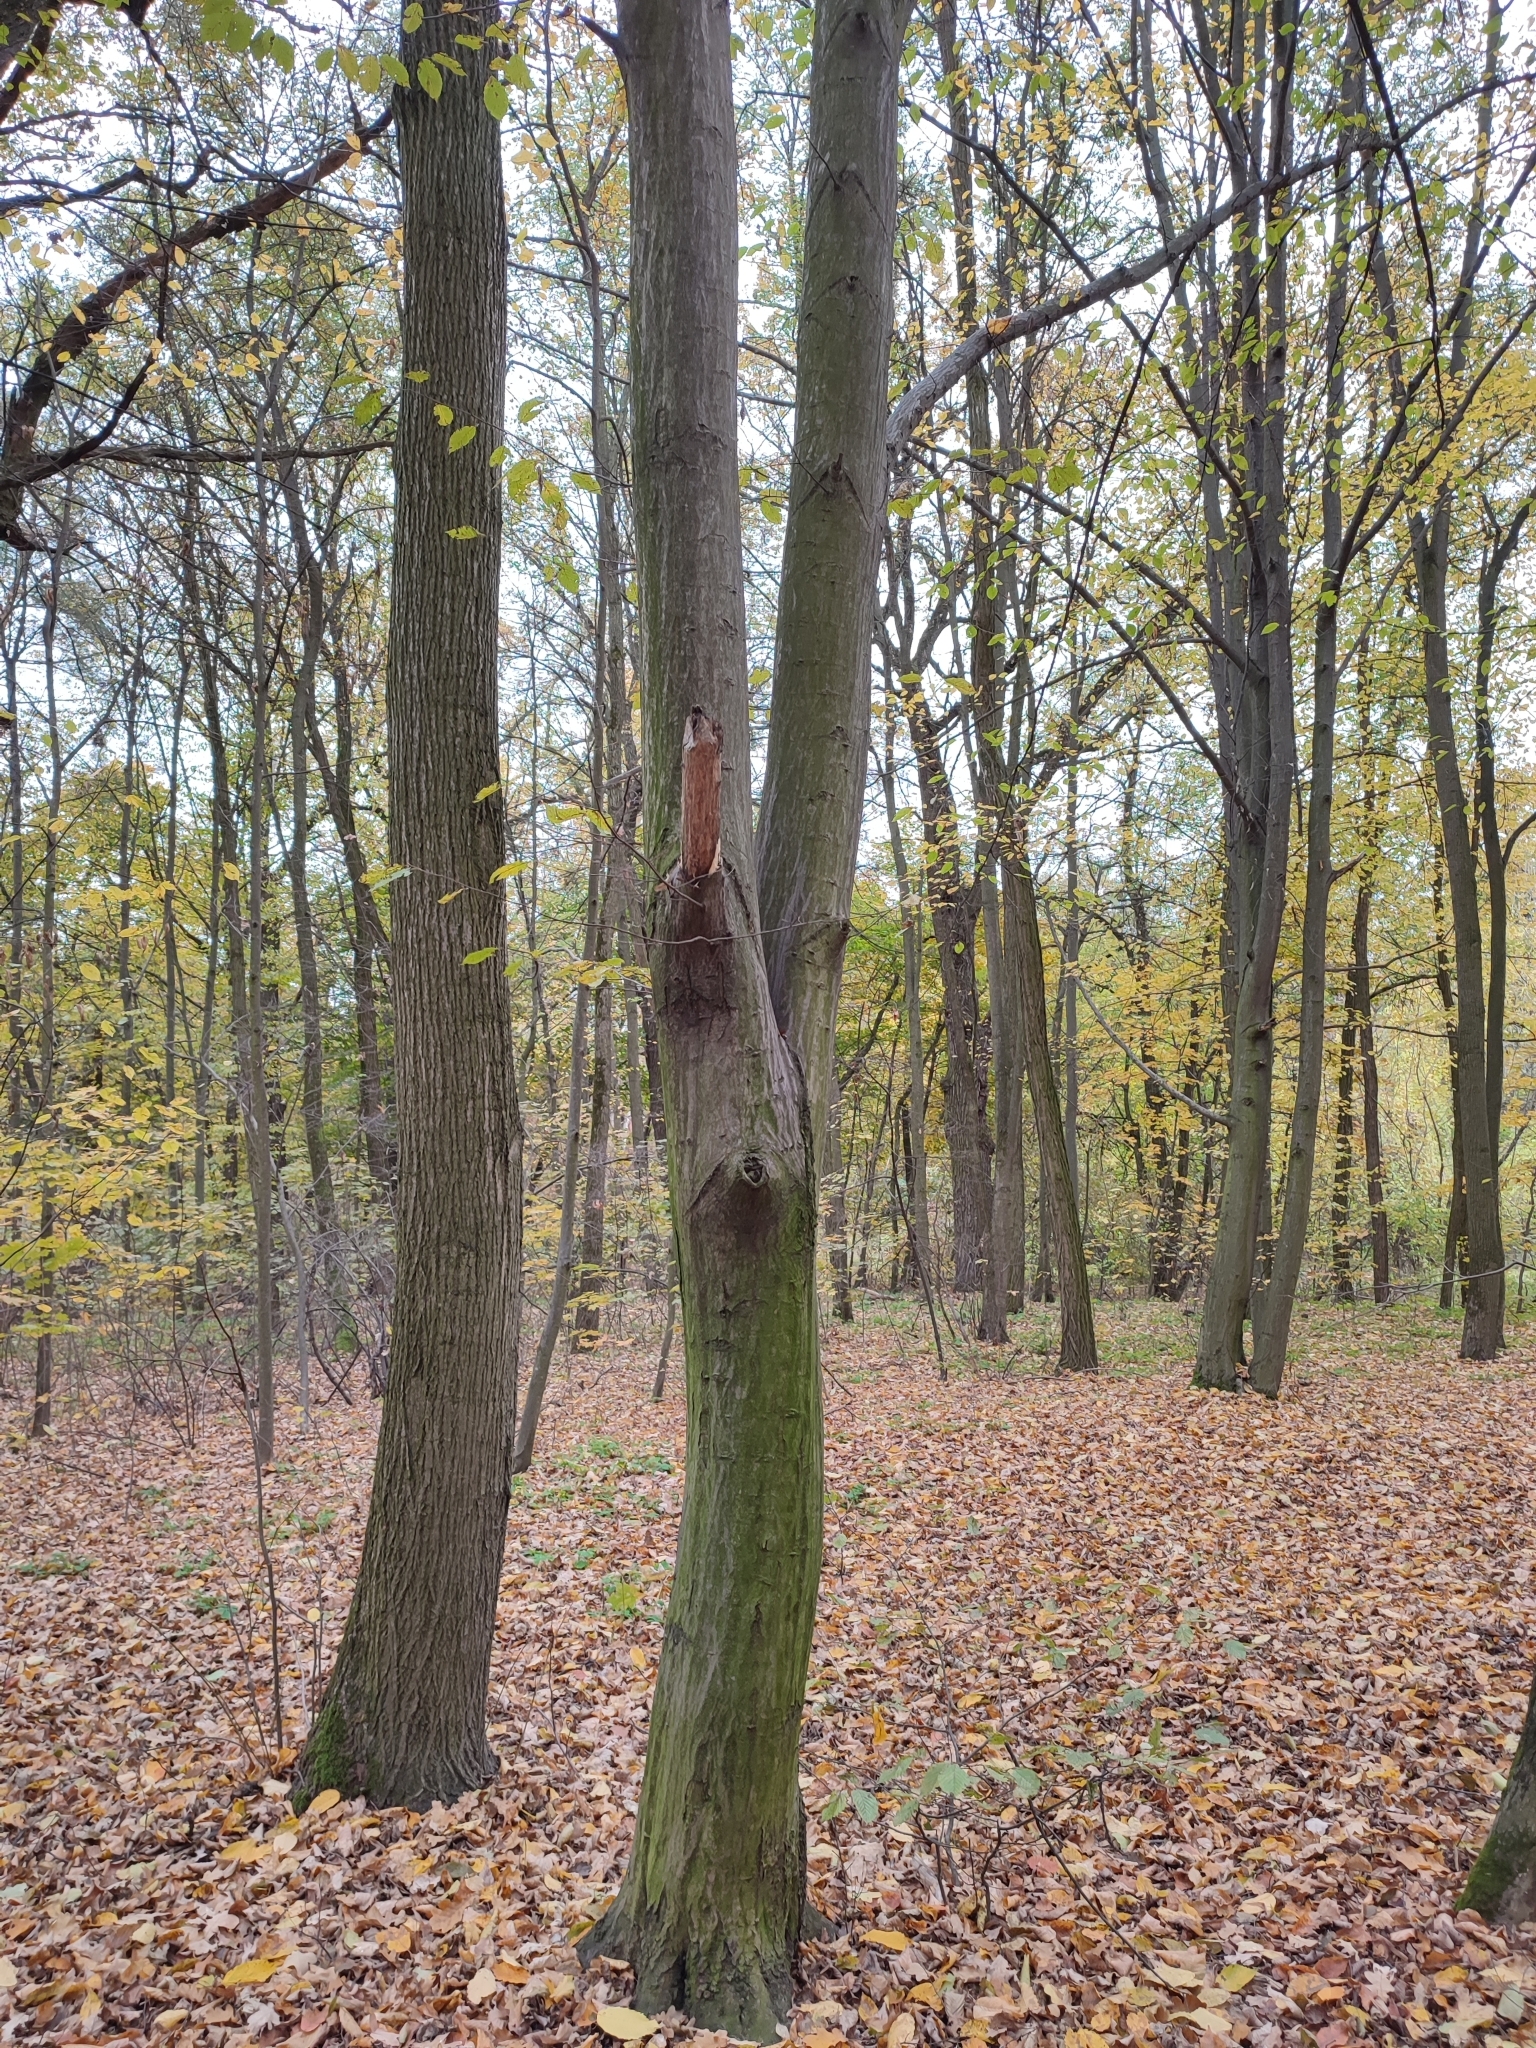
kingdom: Plantae
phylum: Tracheophyta
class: Magnoliopsida
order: Fagales
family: Betulaceae
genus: Carpinus
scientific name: Carpinus betulus
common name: Hornbeam
